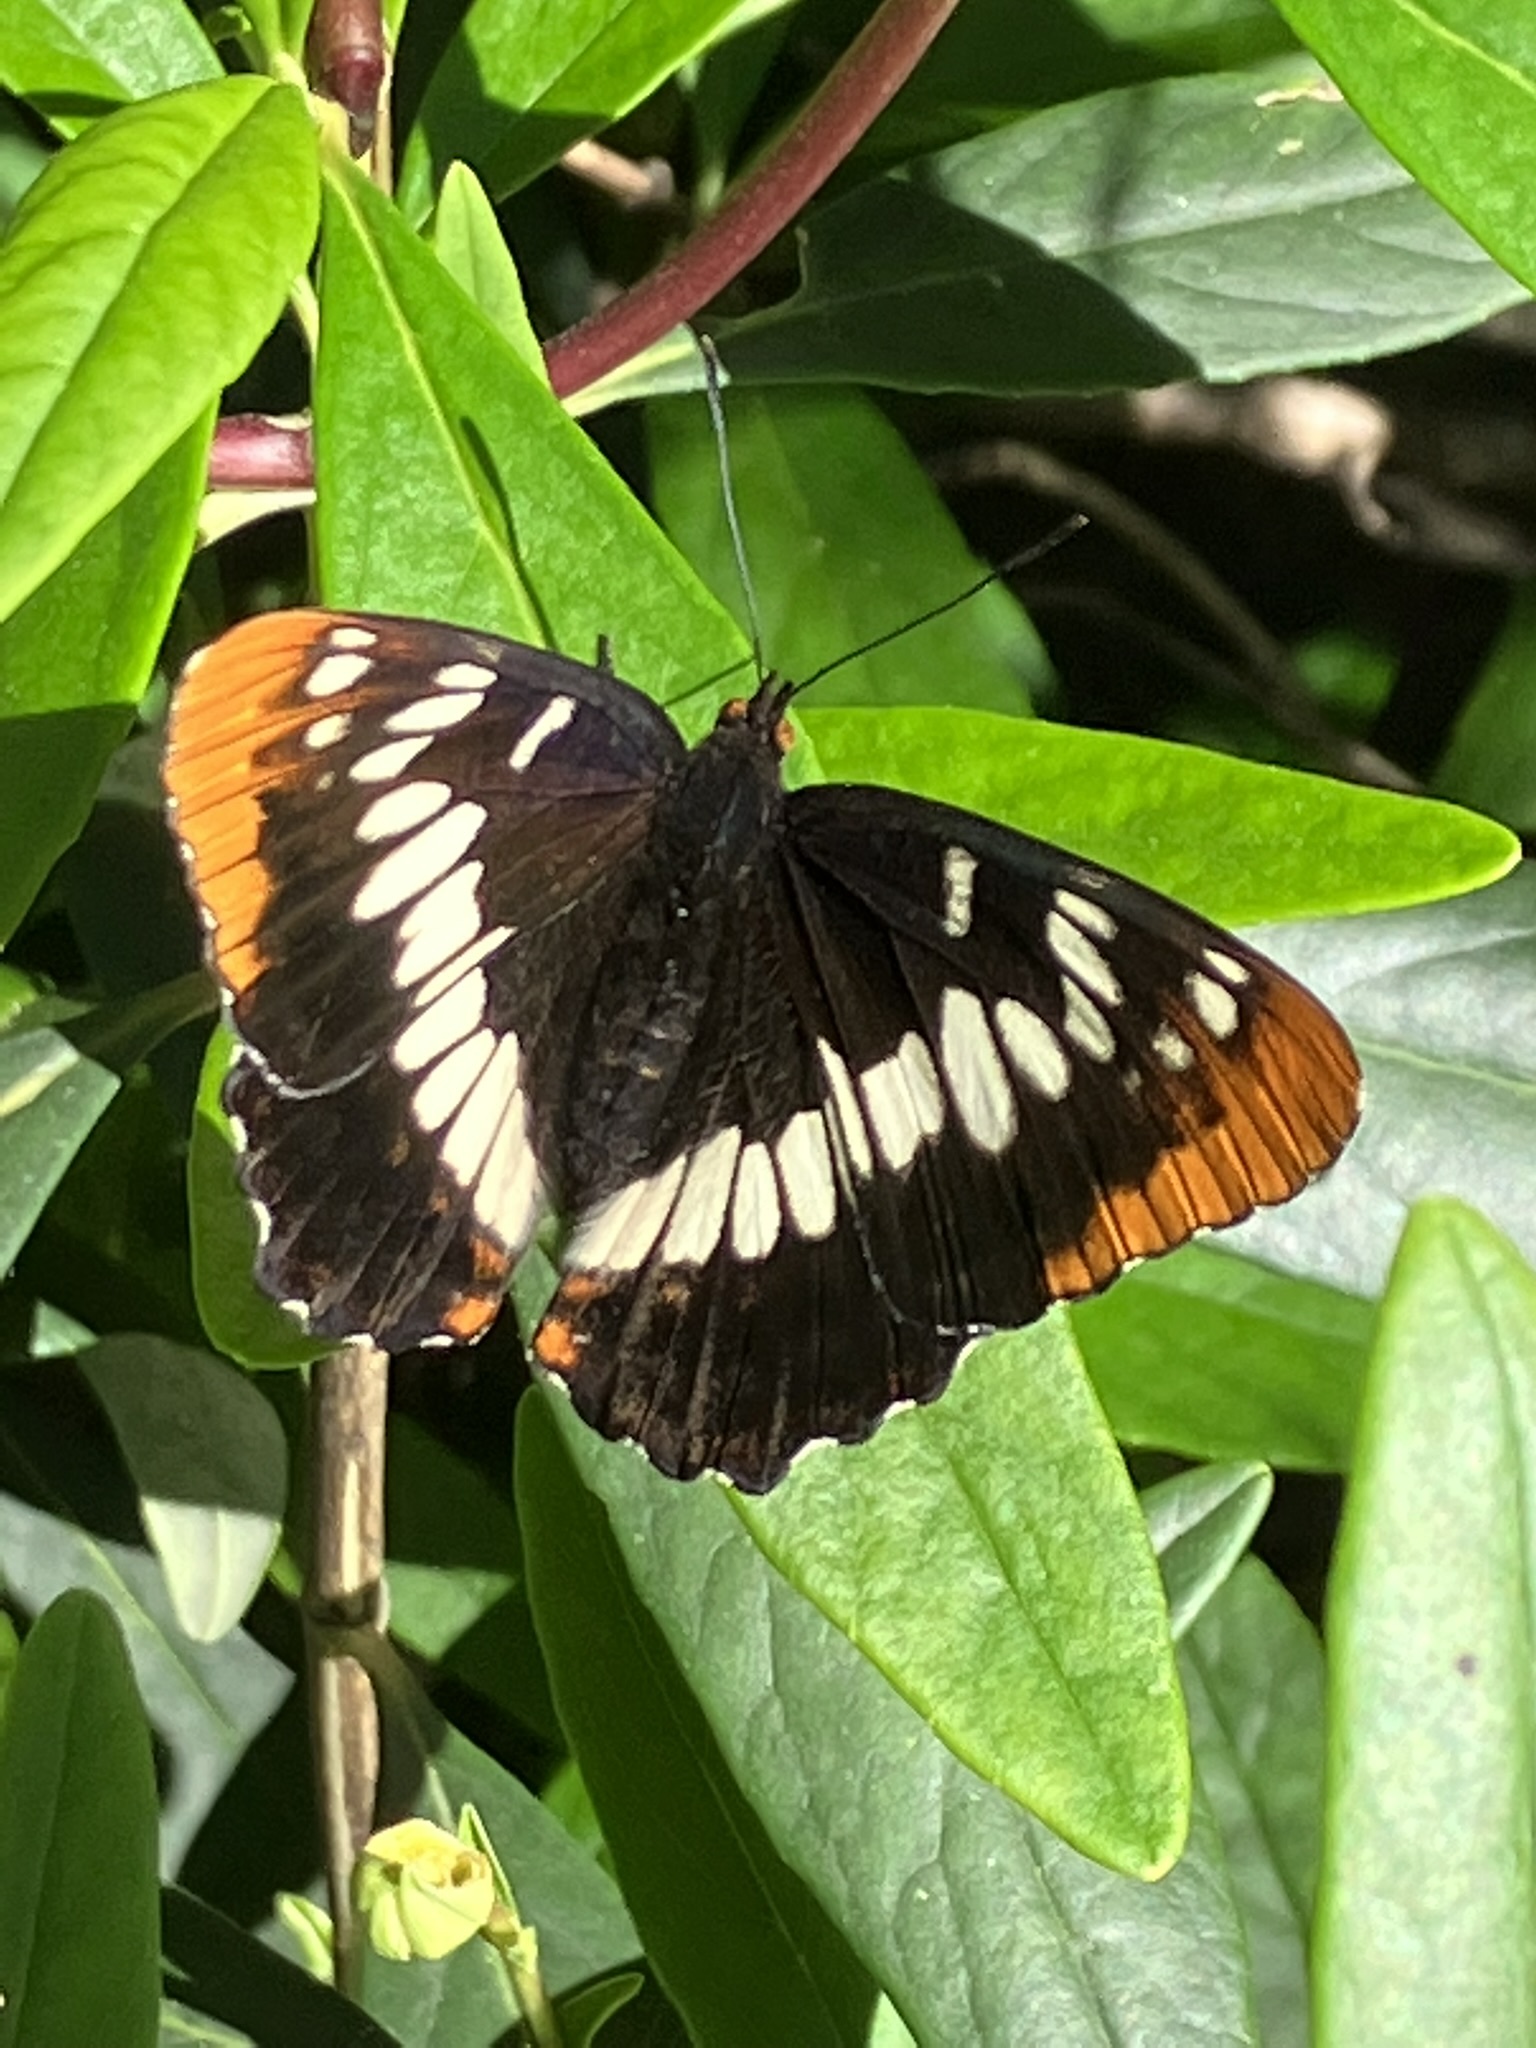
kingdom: Animalia
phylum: Arthropoda
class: Insecta
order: Lepidoptera
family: Nymphalidae
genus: Limenitis
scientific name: Limenitis lorquini
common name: Lorquin's admiral
